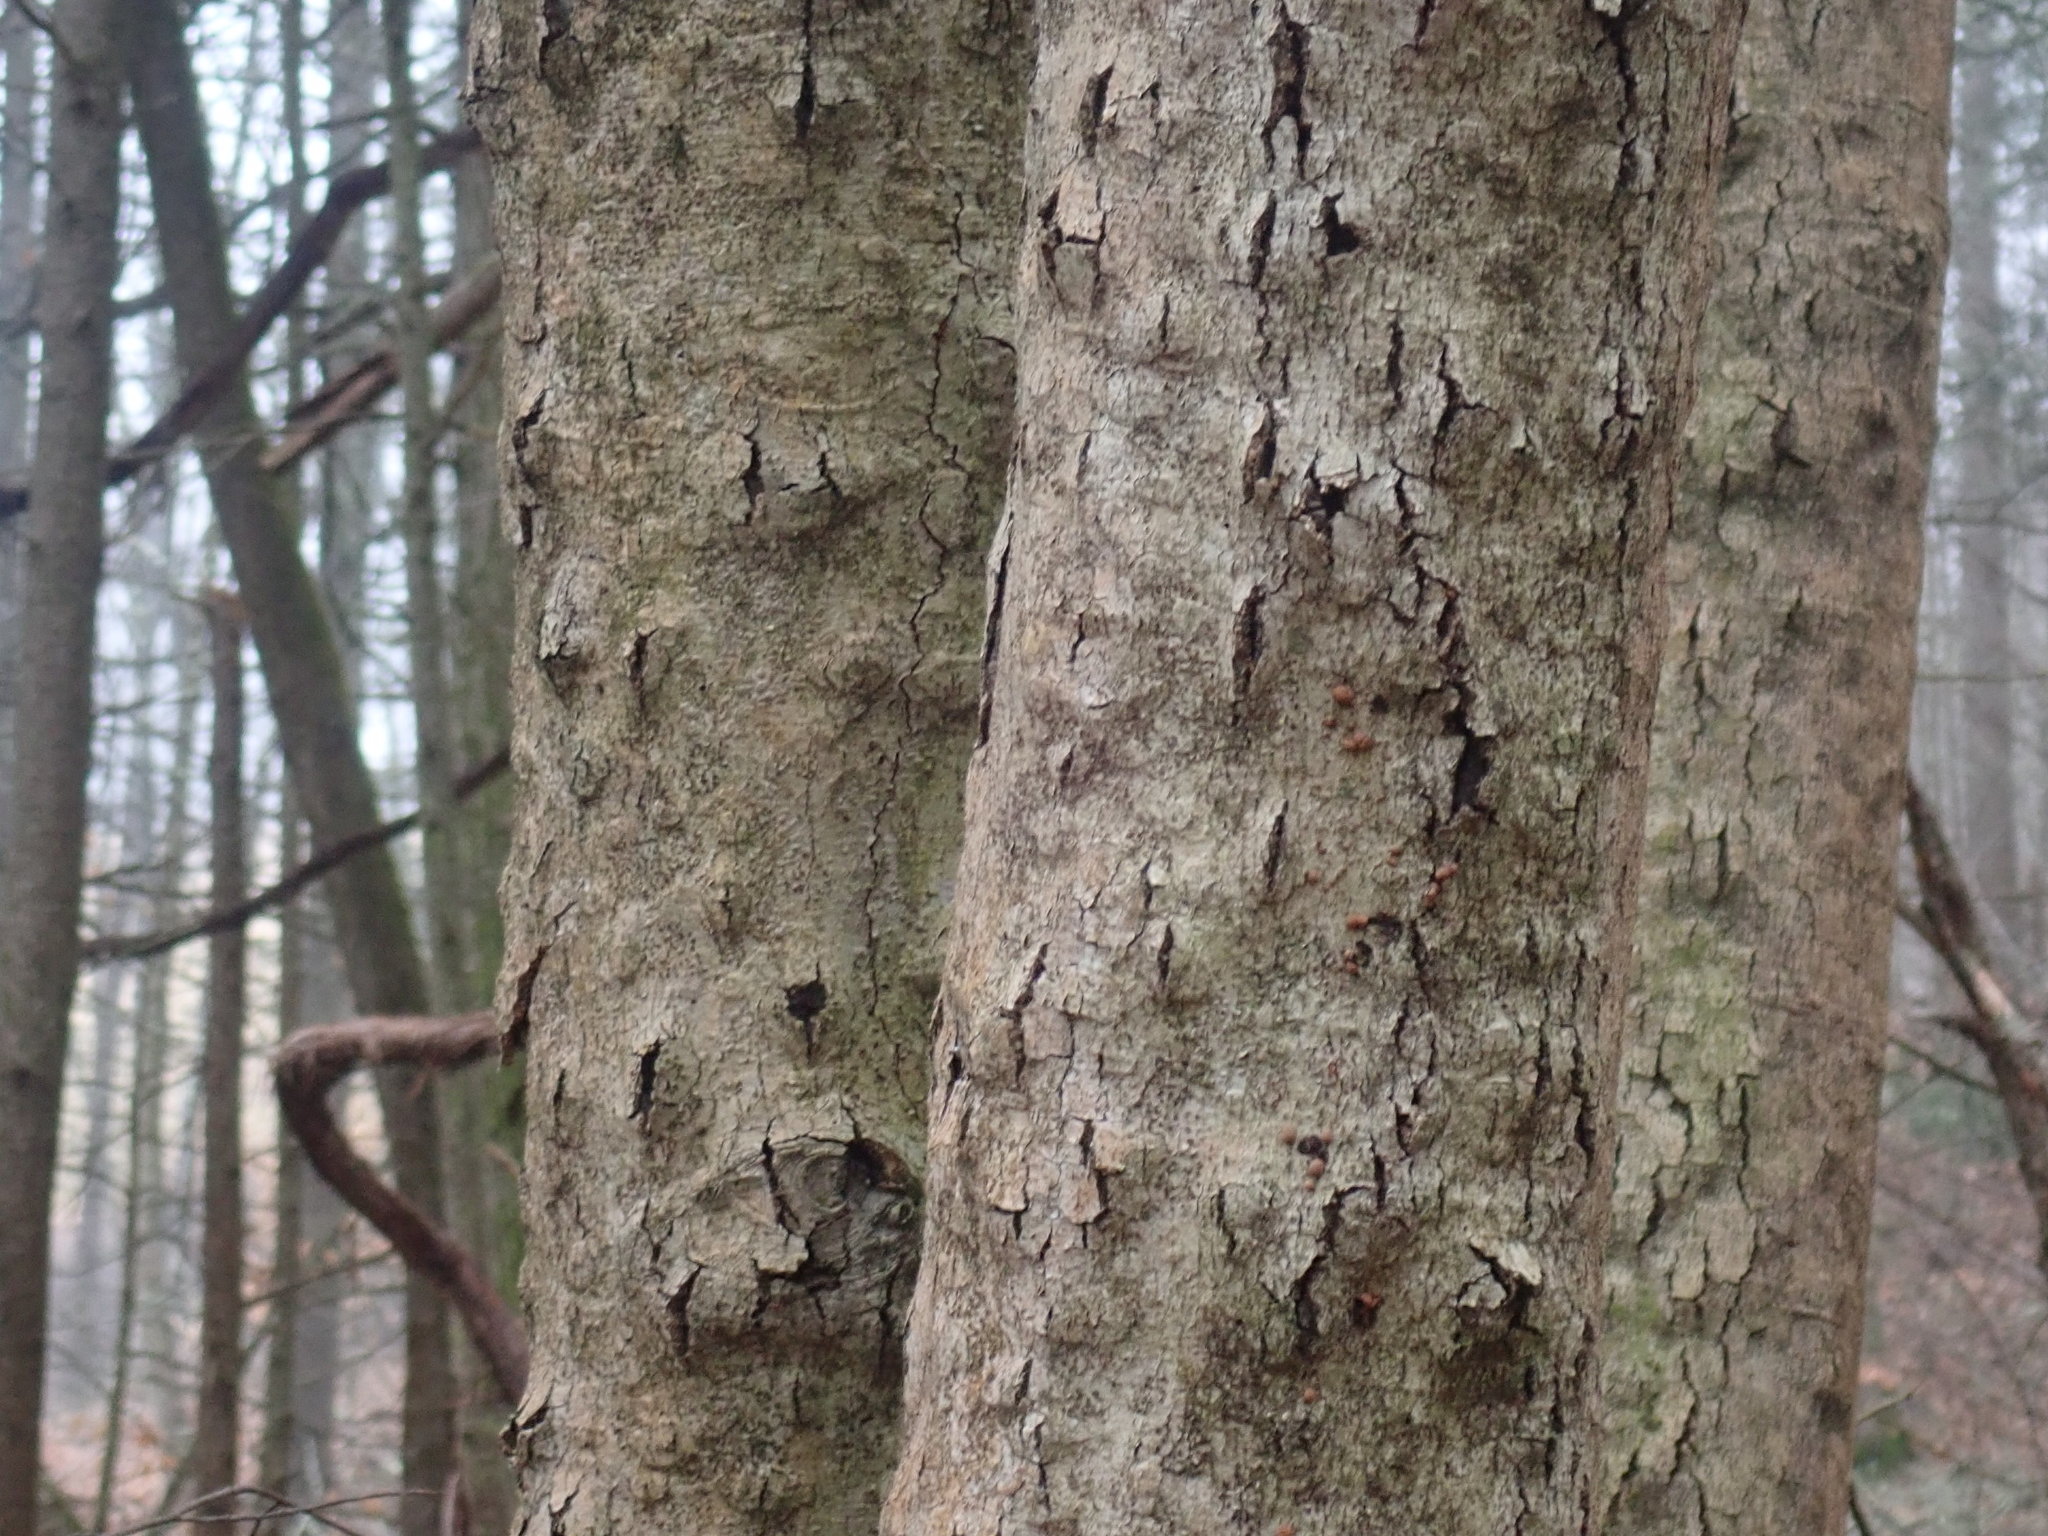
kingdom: Fungi
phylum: Ascomycota
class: Sordariomycetes
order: Hypocreales
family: Nectriaceae
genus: Neonectria
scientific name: Neonectria faginata
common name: Beech bark canker
